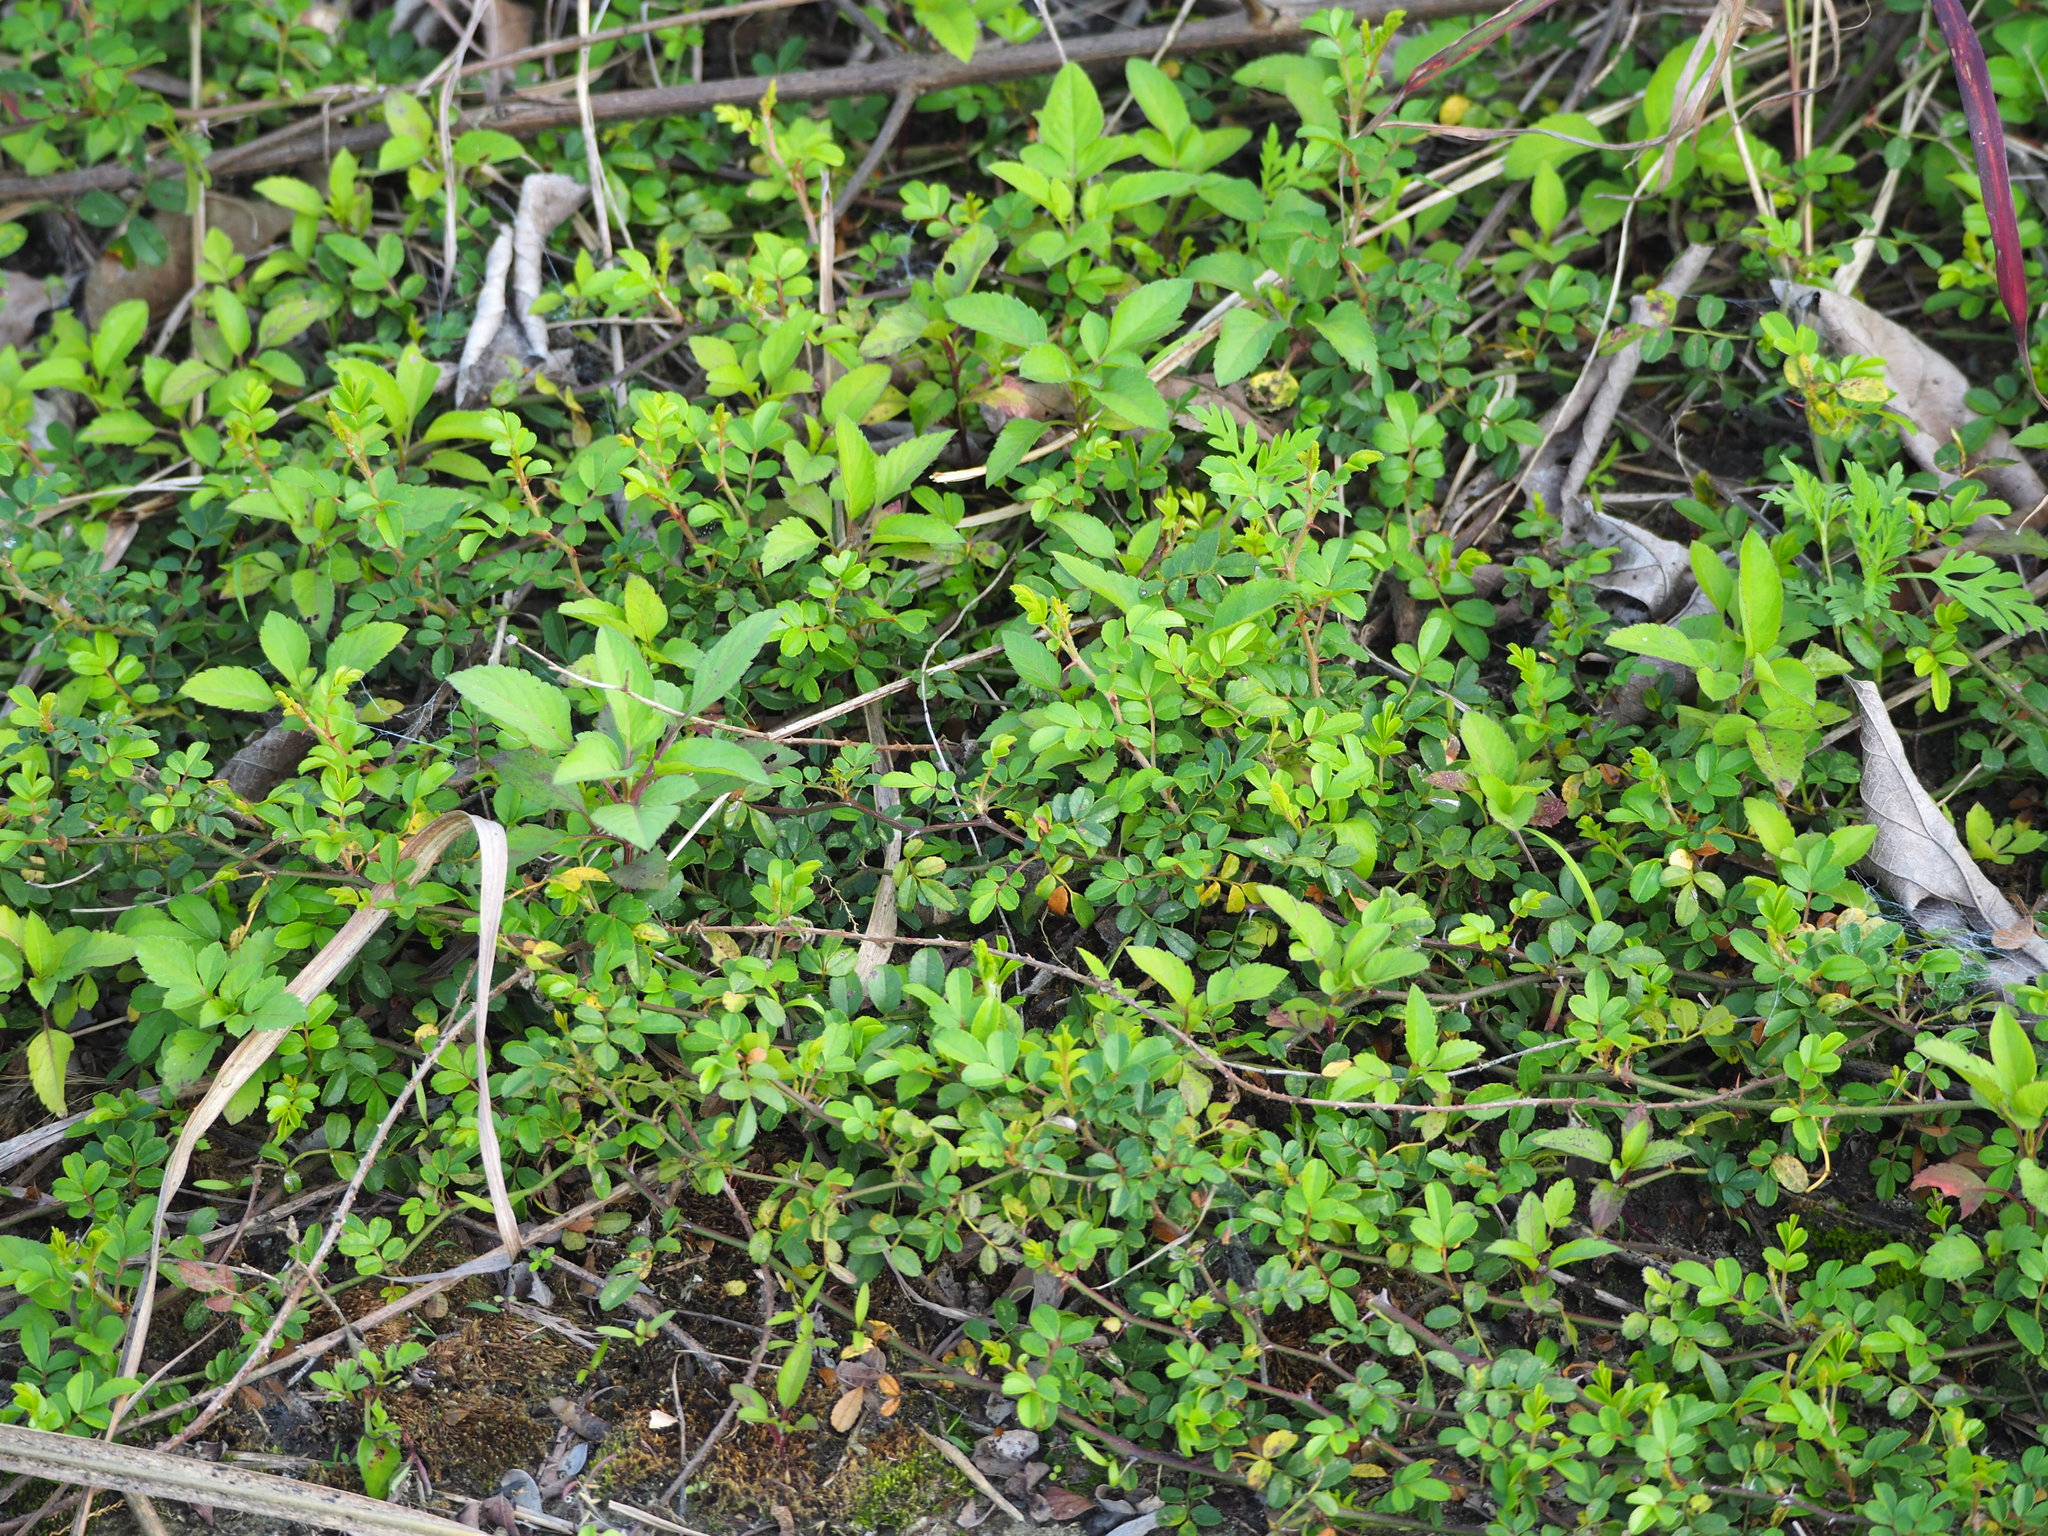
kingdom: Plantae
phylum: Tracheophyta
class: Magnoliopsida
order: Rosales
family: Rosaceae
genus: Rosa
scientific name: Rosa bracteata
